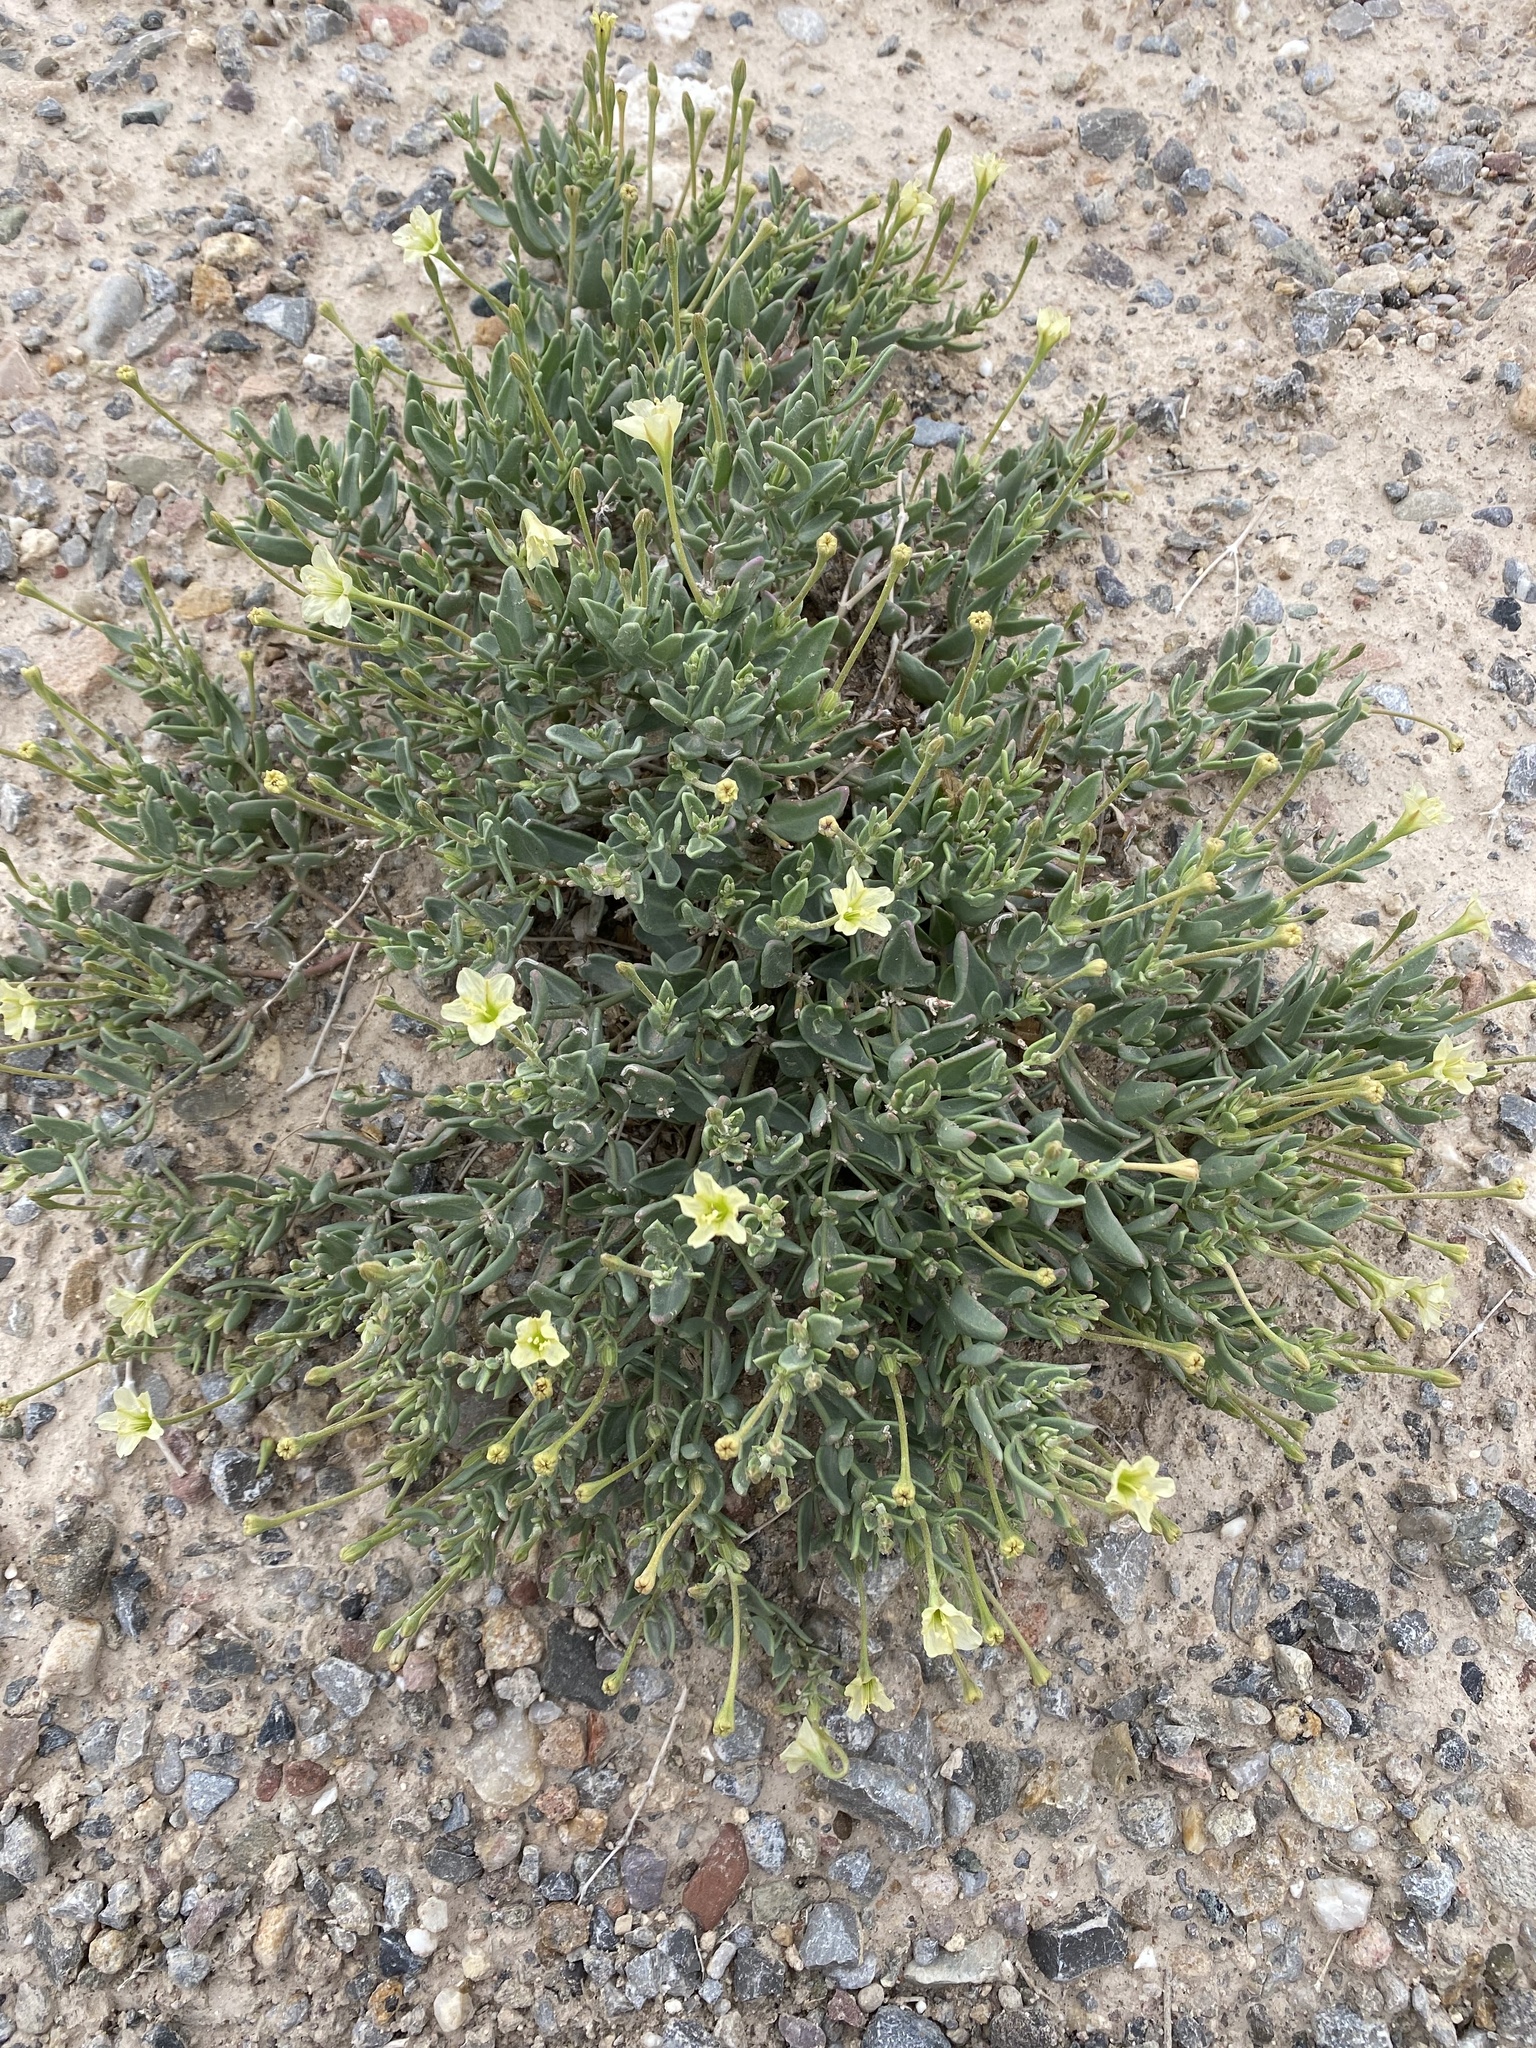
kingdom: Plantae
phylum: Tracheophyta
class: Magnoliopsida
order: Caryophyllales
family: Nyctaginaceae
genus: Acleisanthes
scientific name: Acleisanthes lanceolata
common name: Gypsum moonpod
